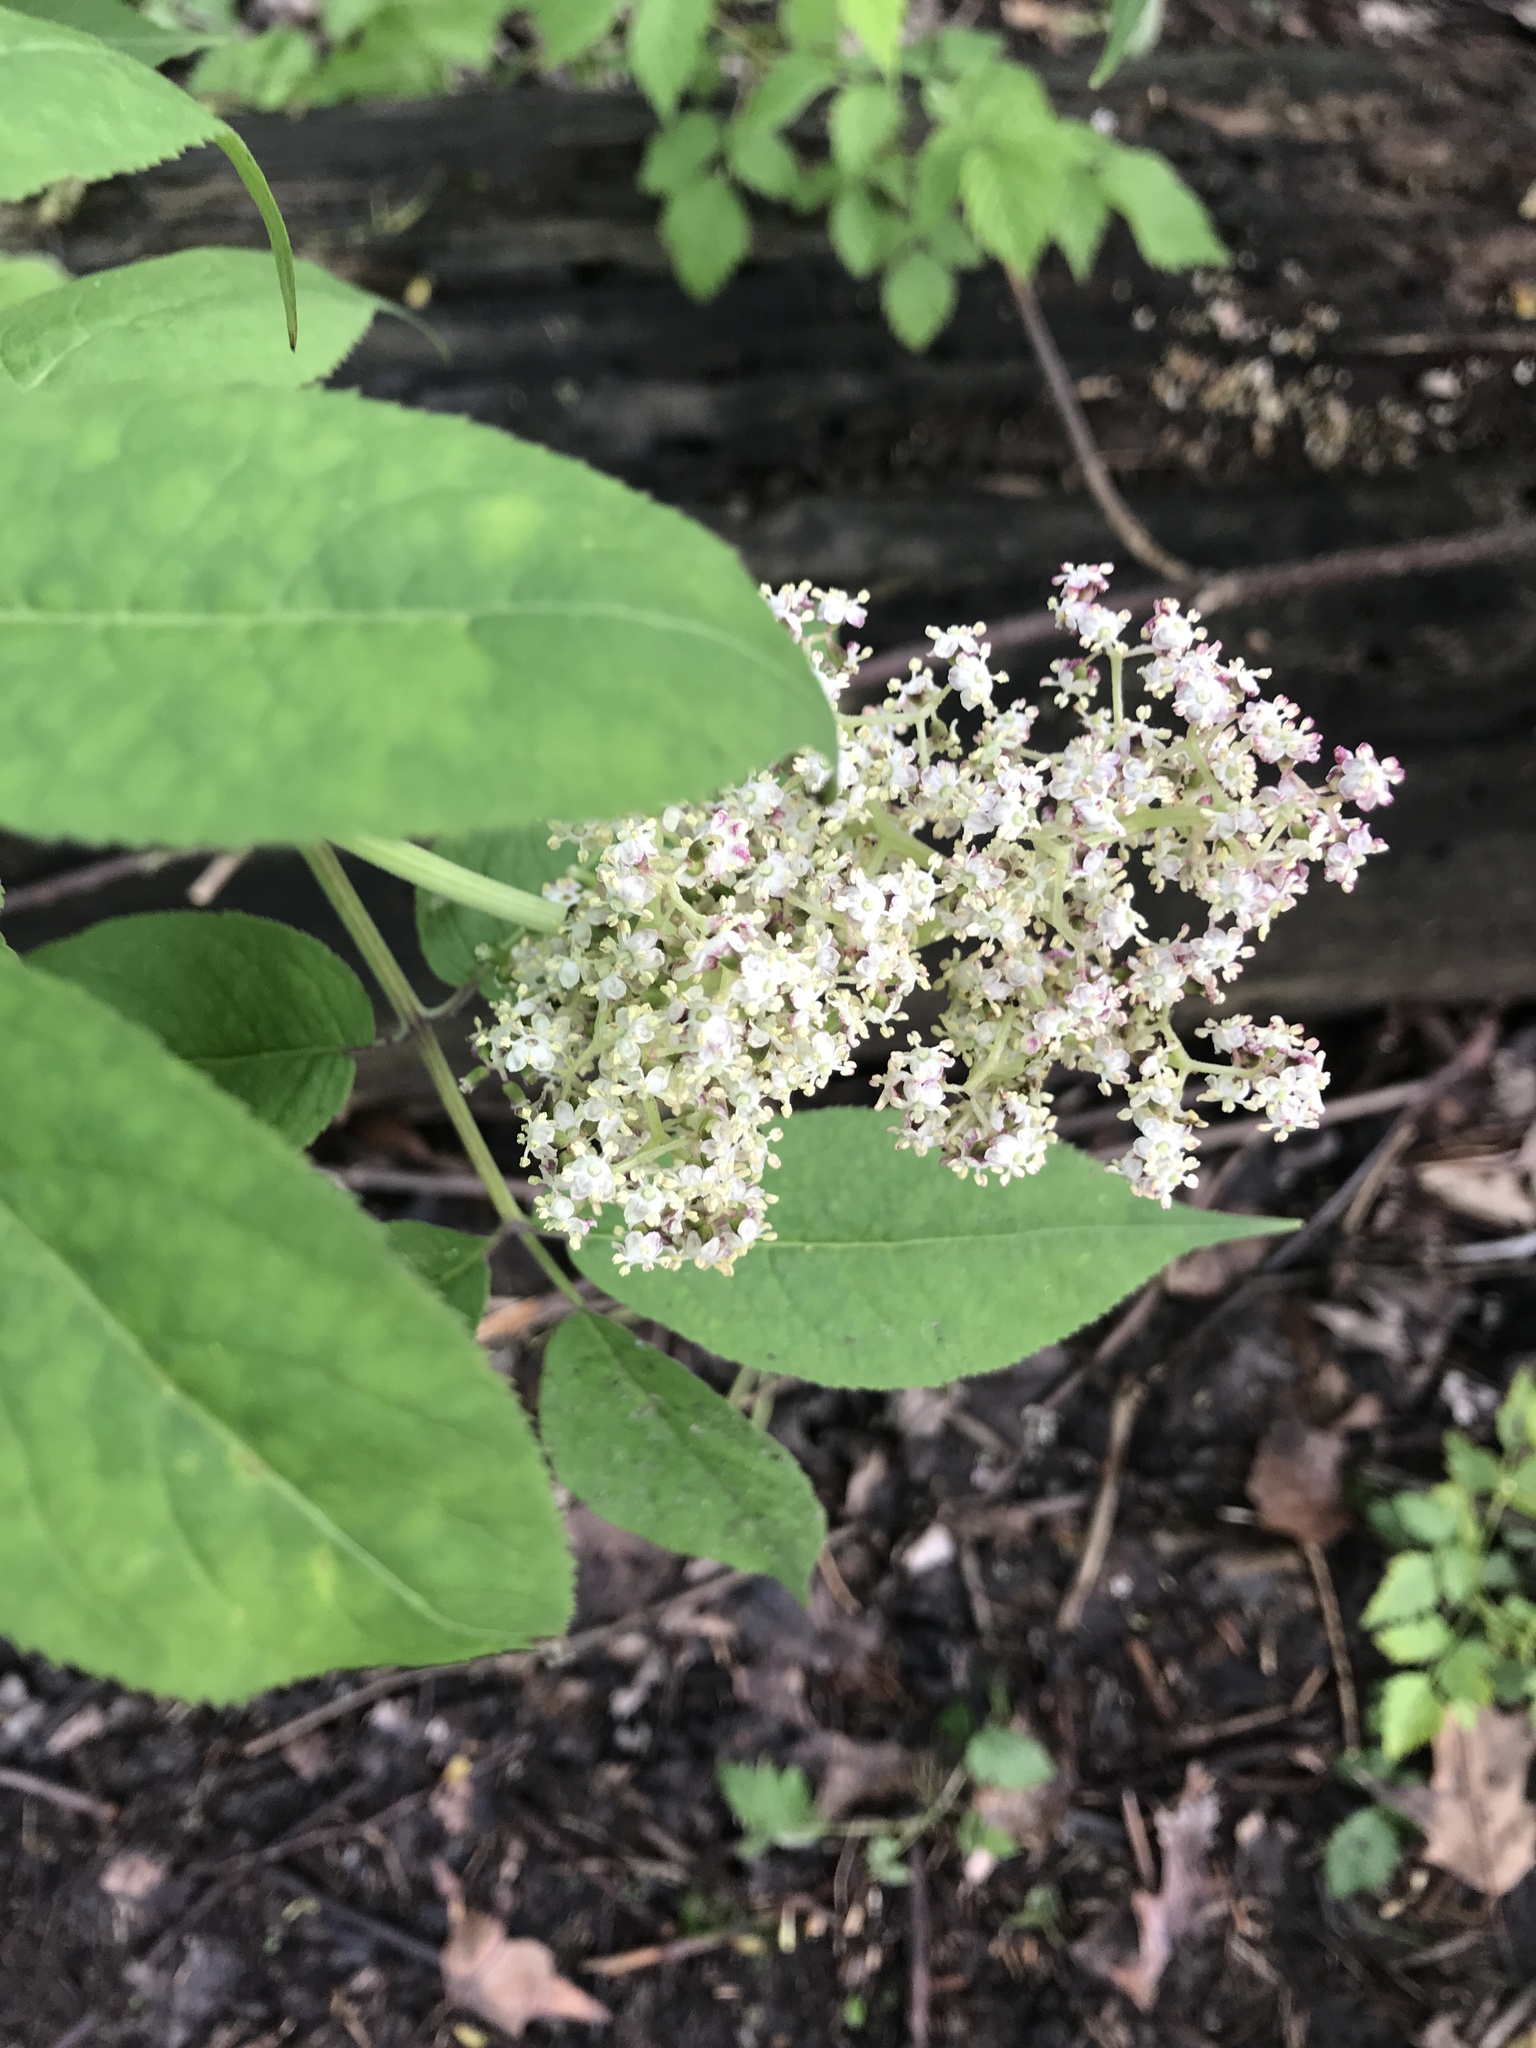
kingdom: Plantae
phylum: Tracheophyta
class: Magnoliopsida
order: Dipsacales
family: Viburnaceae
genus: Sambucus
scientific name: Sambucus racemosa
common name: Red-berried elder
